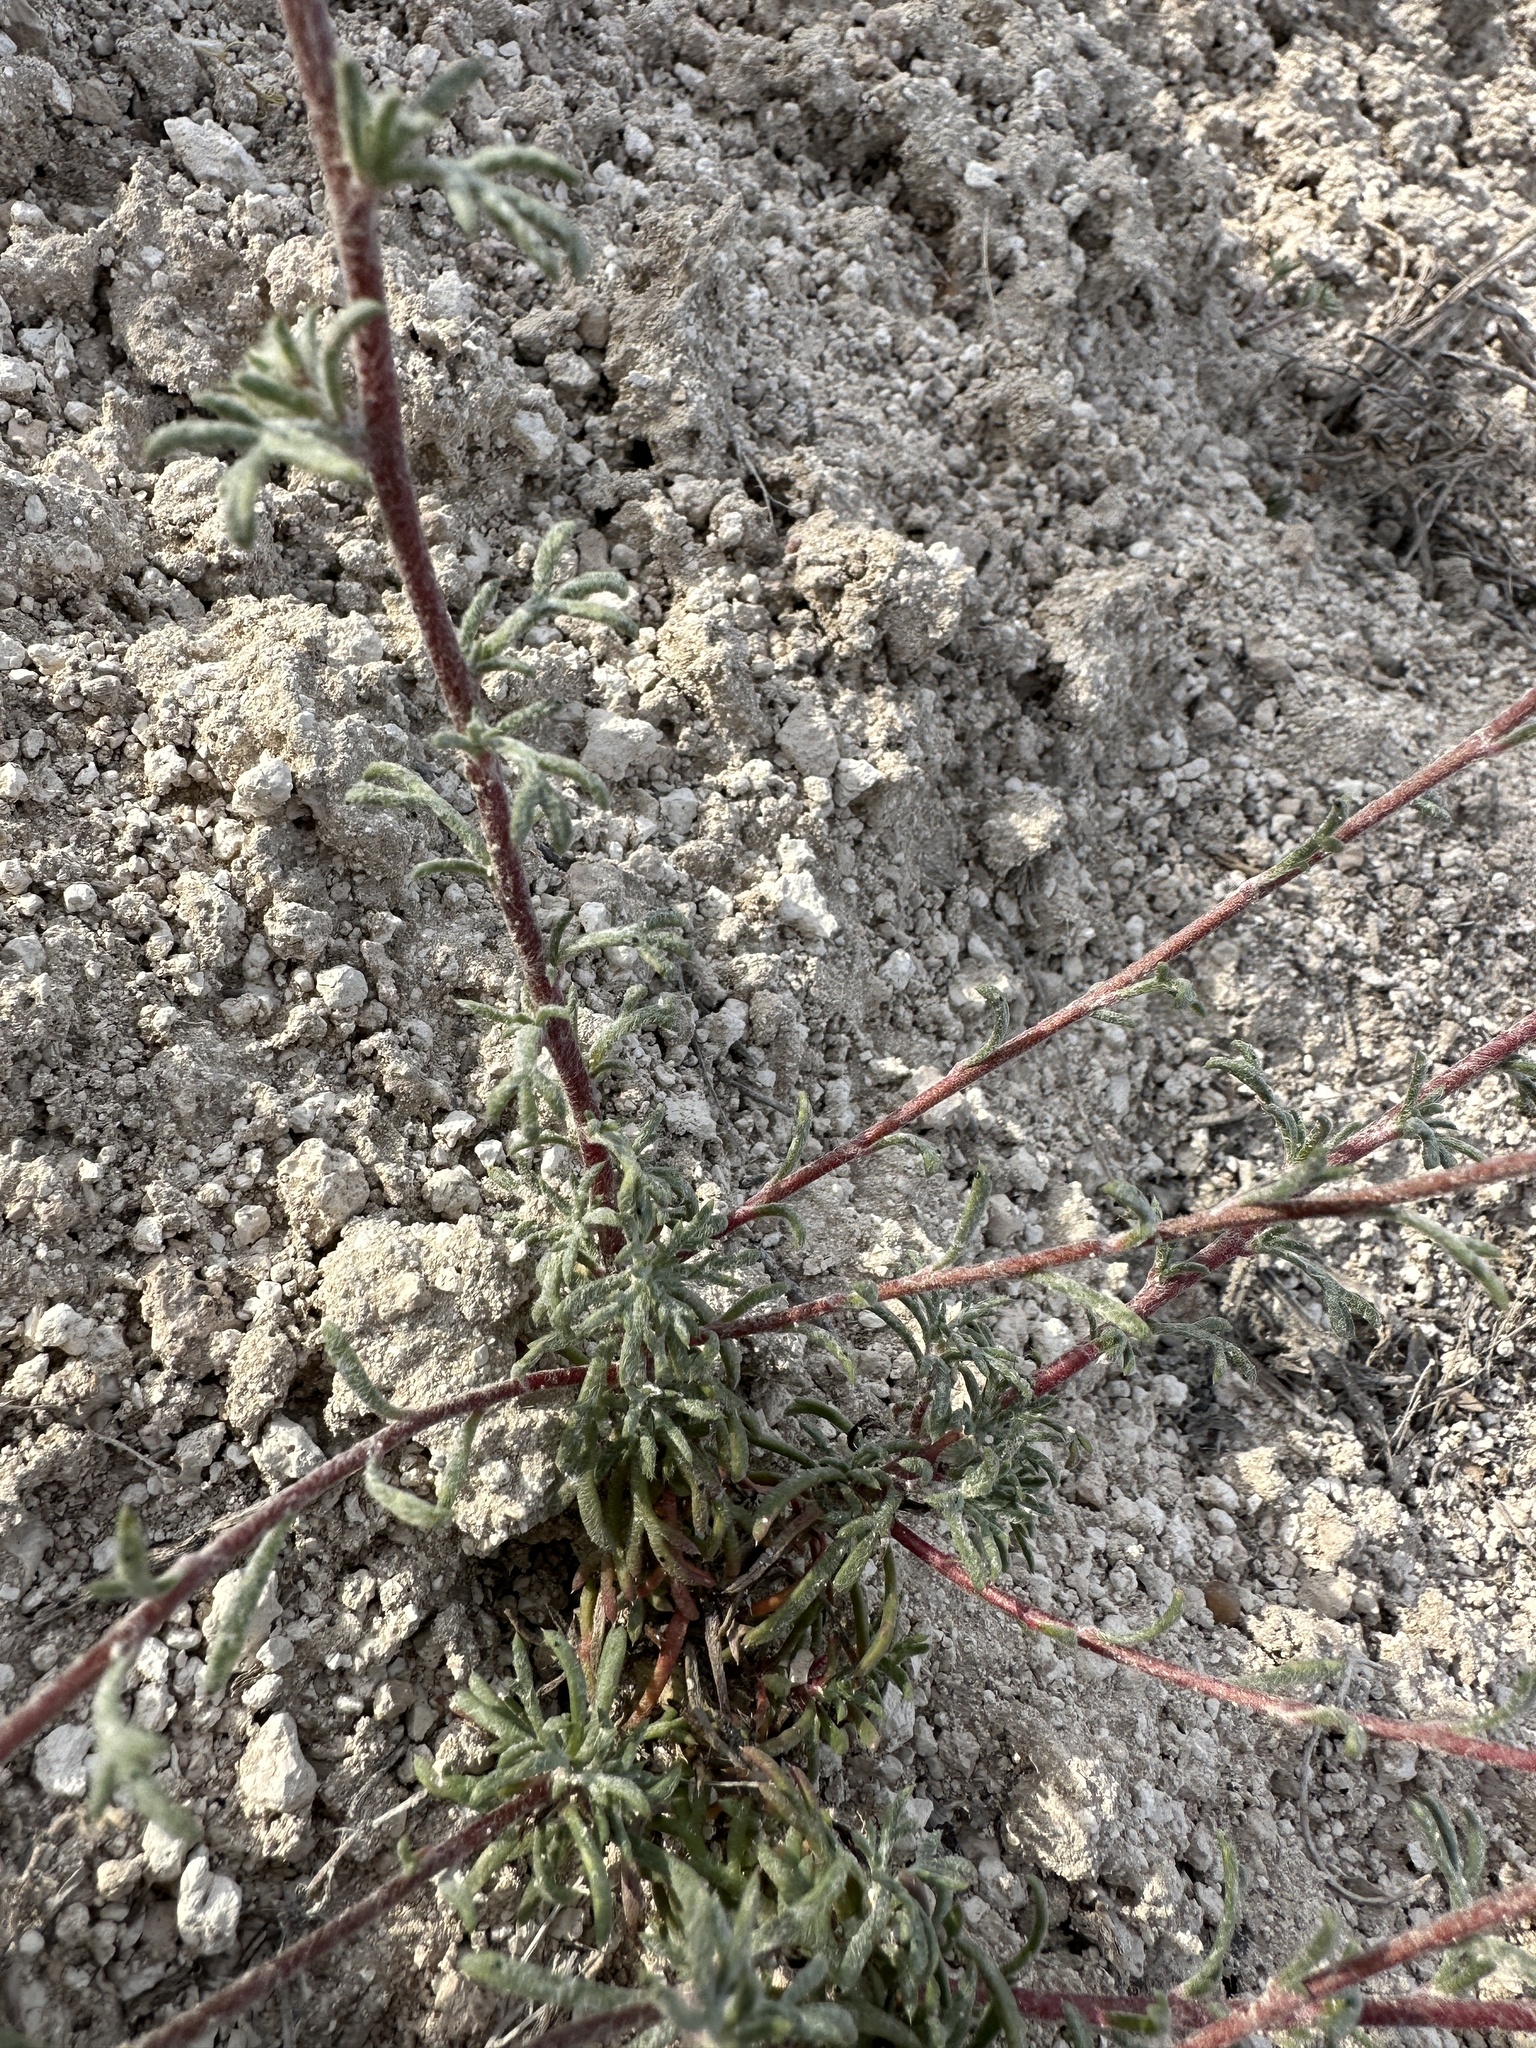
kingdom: Plantae
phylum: Tracheophyta
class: Magnoliopsida
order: Ericales
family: Polemoniaceae
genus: Ipomopsis
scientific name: Ipomopsis congesta
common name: Ball-head gilia
